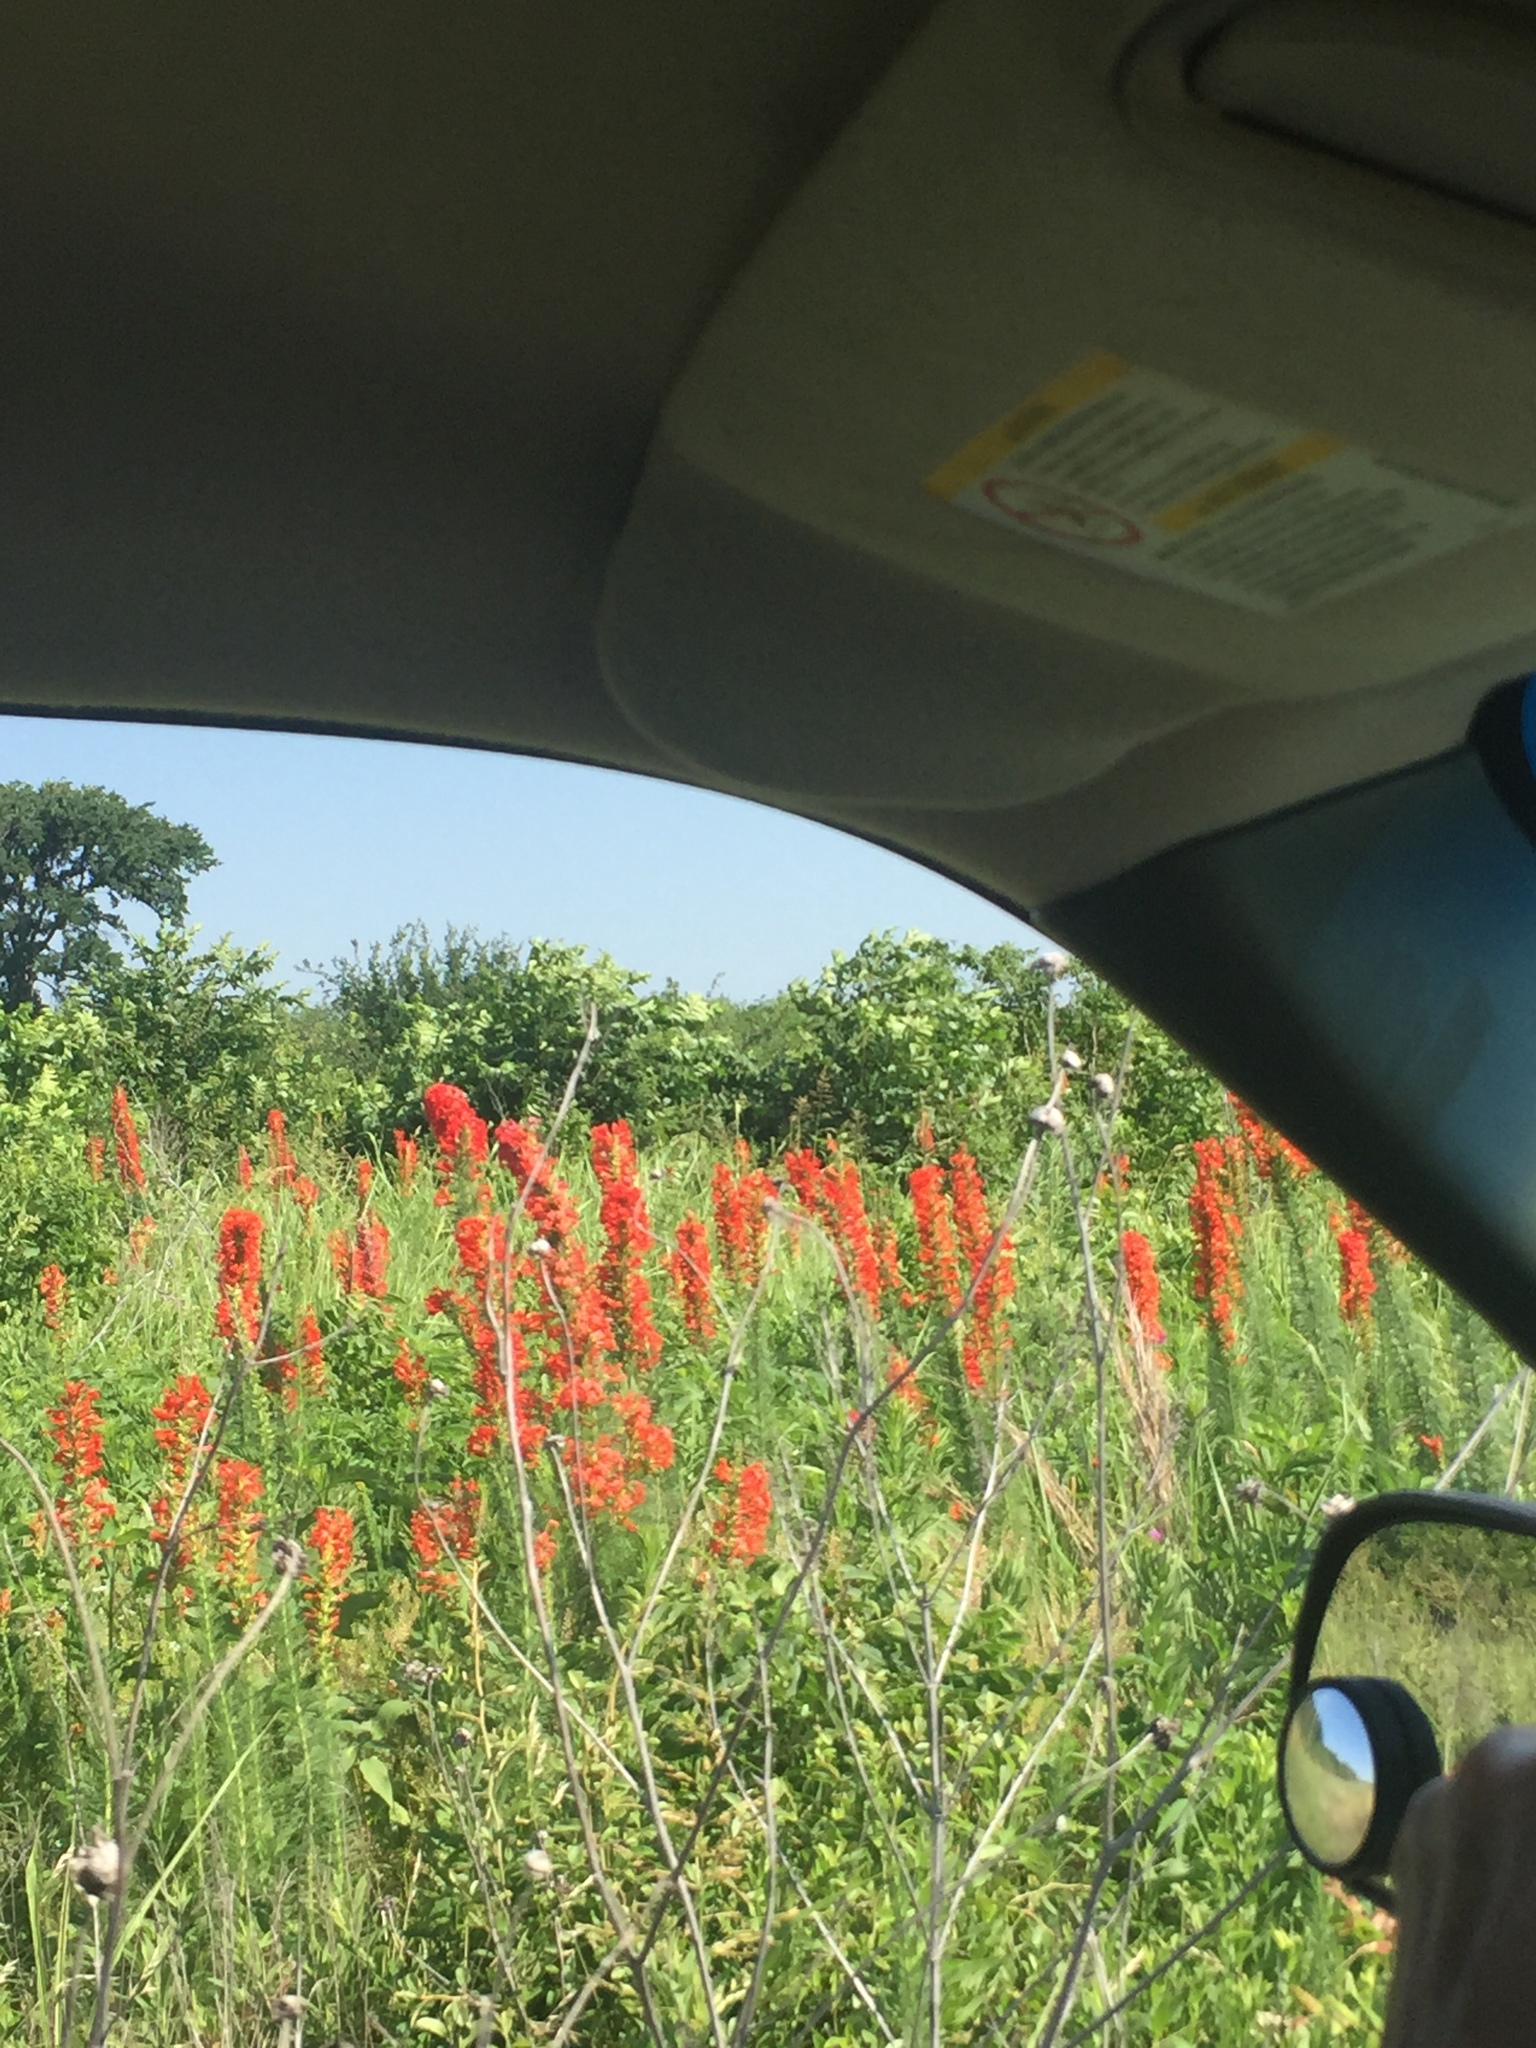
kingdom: Plantae
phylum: Tracheophyta
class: Magnoliopsida
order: Ericales
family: Polemoniaceae
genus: Ipomopsis
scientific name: Ipomopsis rubra
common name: Skyrocket
